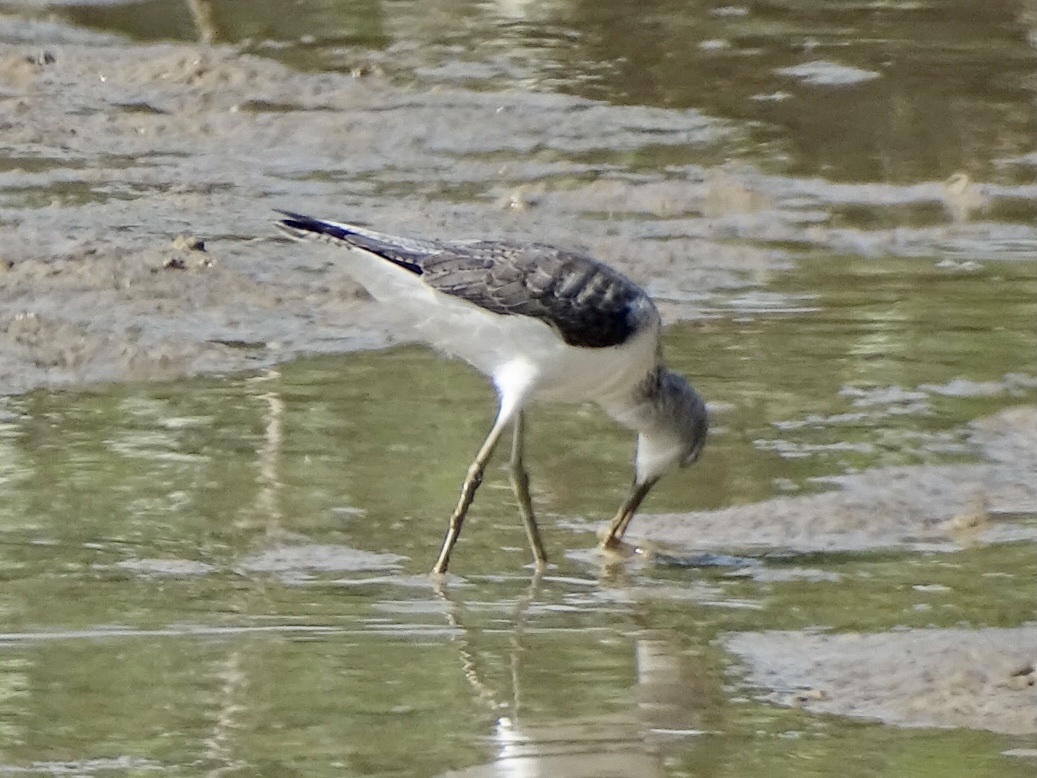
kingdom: Animalia
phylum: Chordata
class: Aves
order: Charadriiformes
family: Scolopacidae
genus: Tringa
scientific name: Tringa nebularia
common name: Common greenshank
